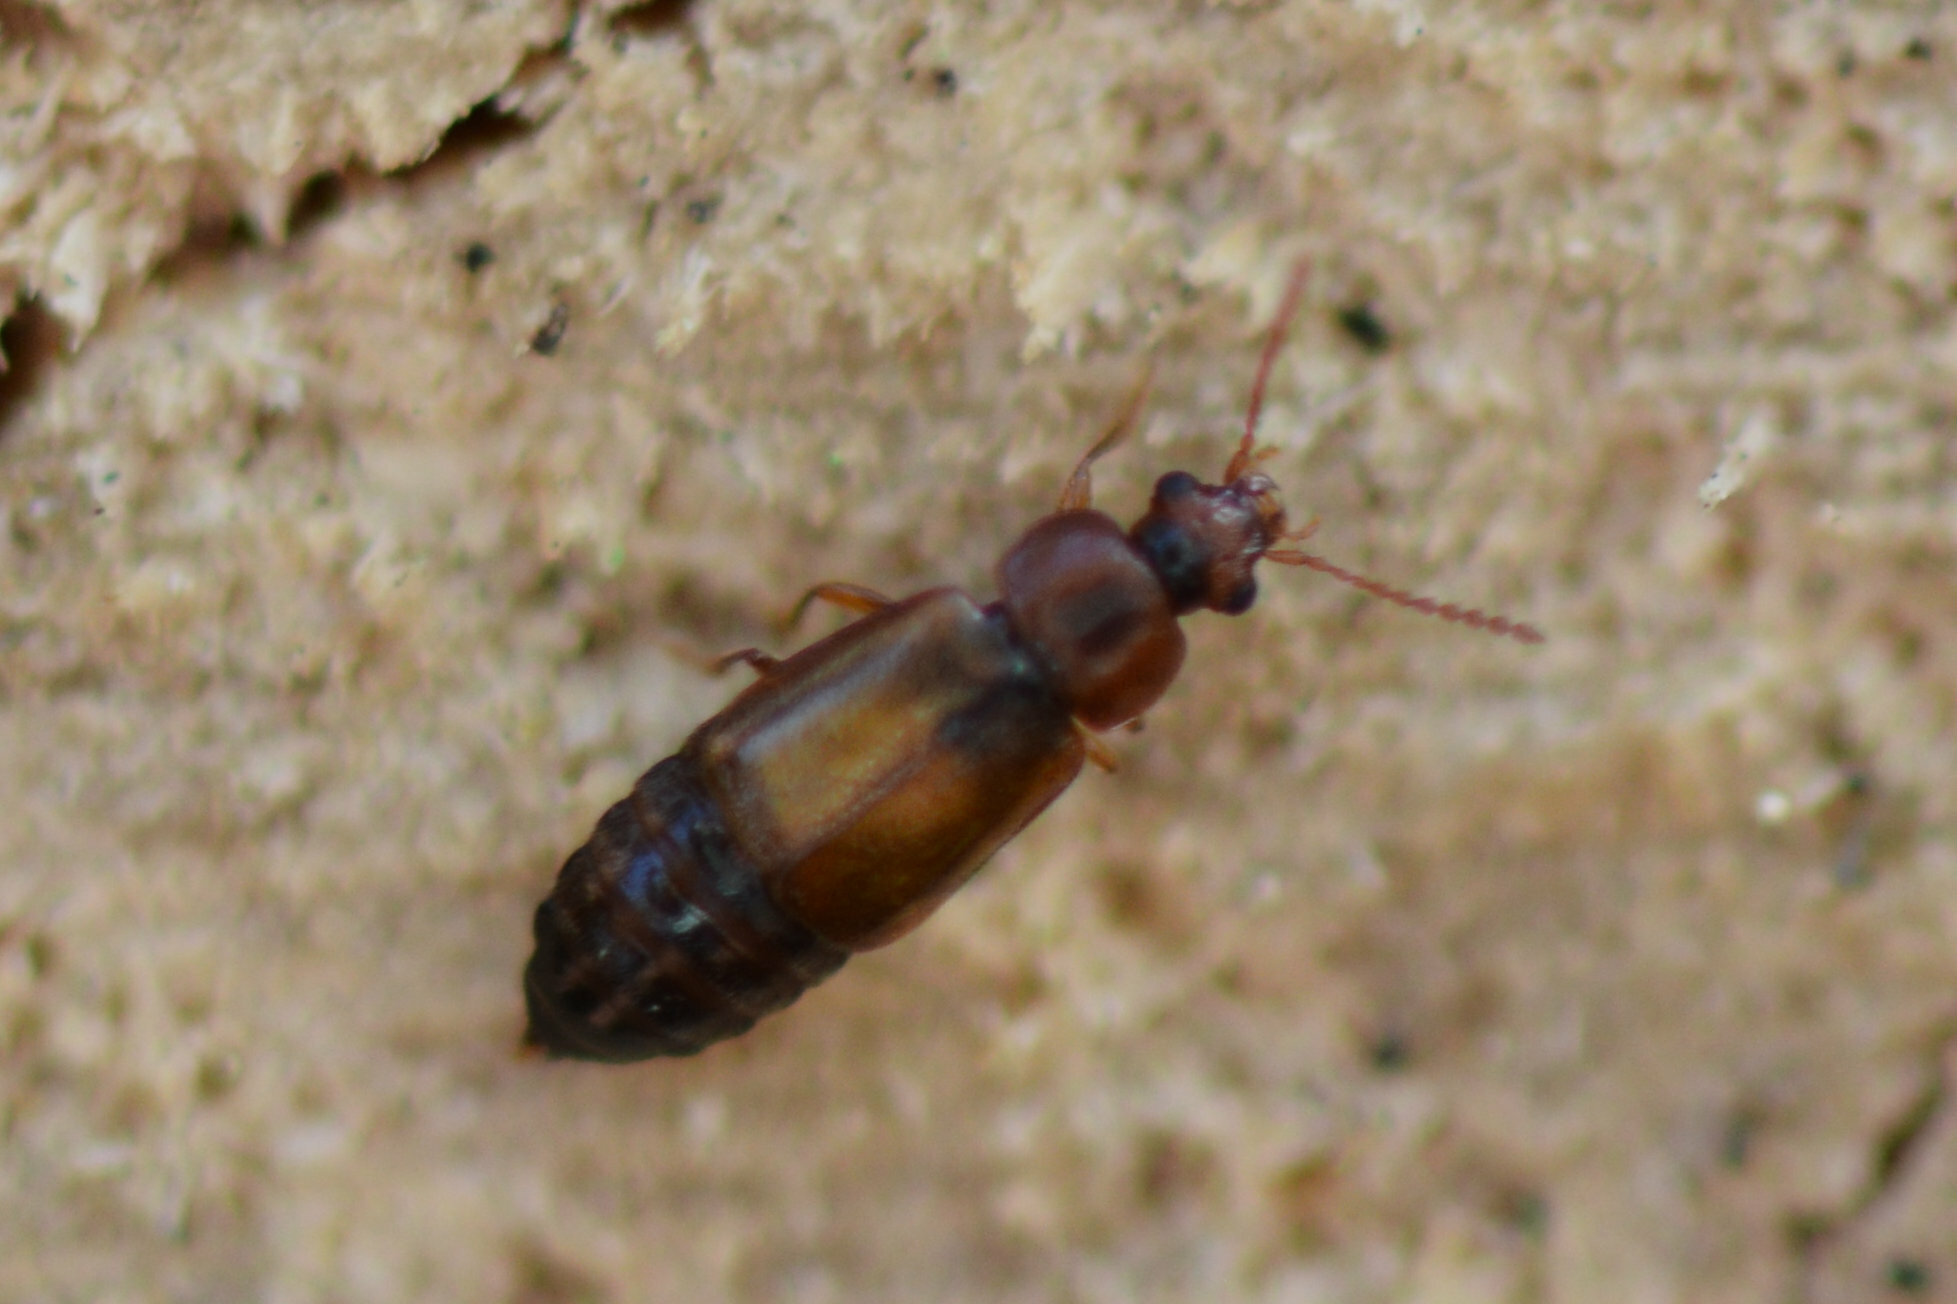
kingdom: Animalia
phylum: Arthropoda
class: Insecta
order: Coleoptera
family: Staphylinidae
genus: Eusphalerum
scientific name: Eusphalerum semicoleoptratum
